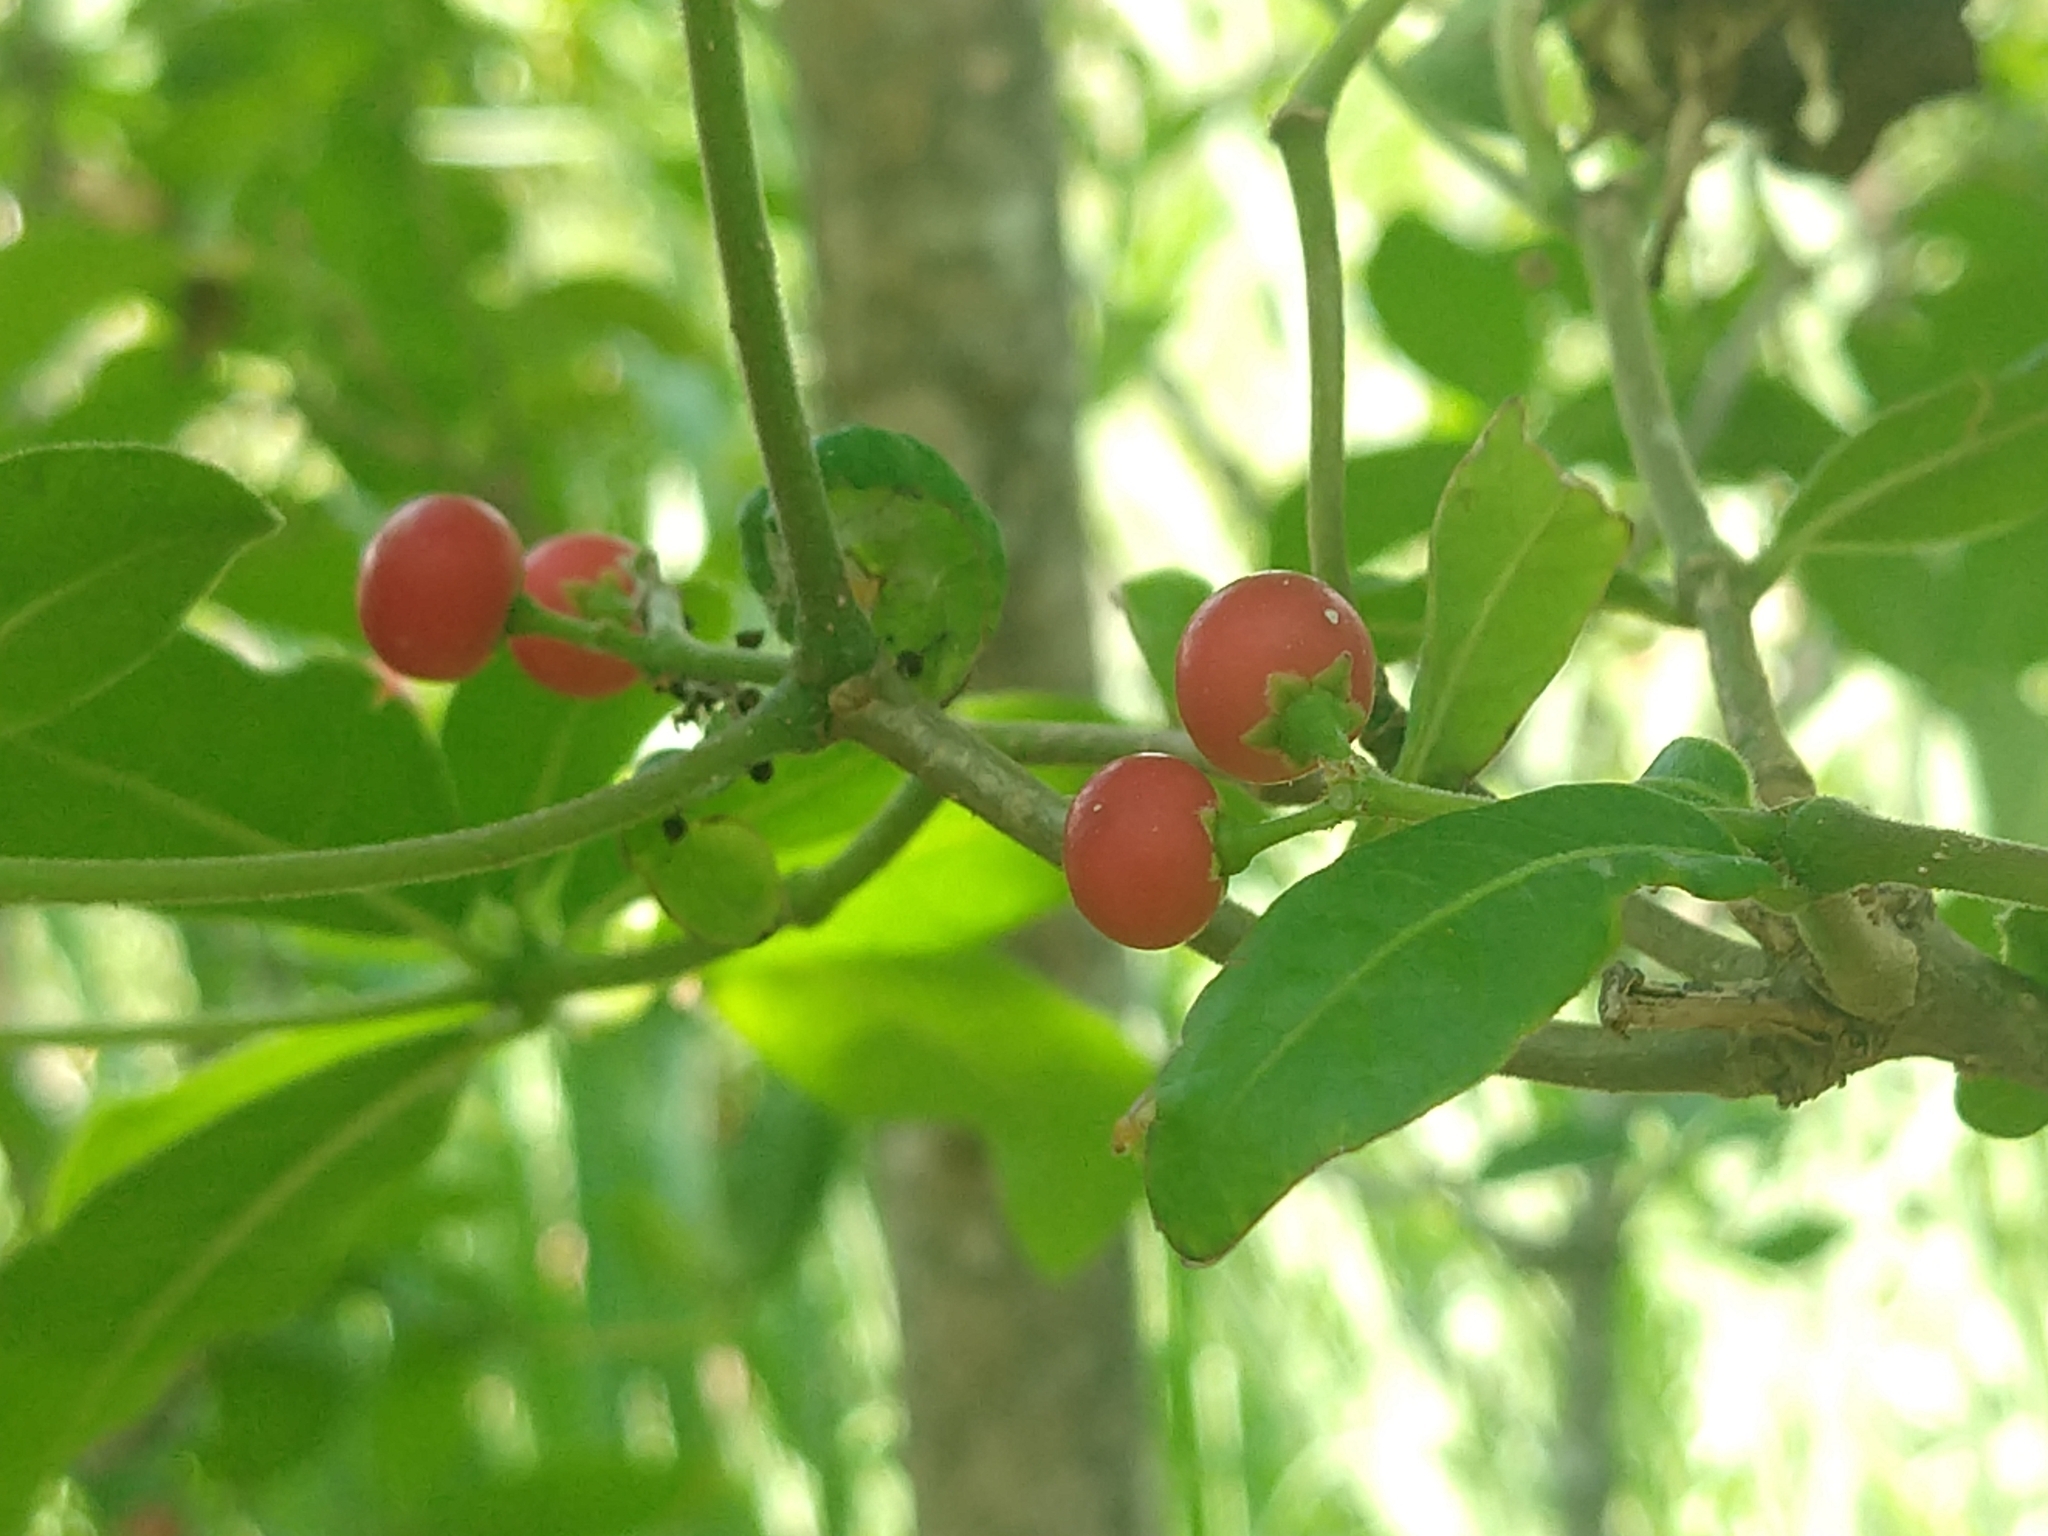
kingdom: Plantae
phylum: Tracheophyta
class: Magnoliopsida
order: Gentianales
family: Apocynaceae
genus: Rauvolfia
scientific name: Rauvolfia tetraphylla
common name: Four-leaf devil-pepper
